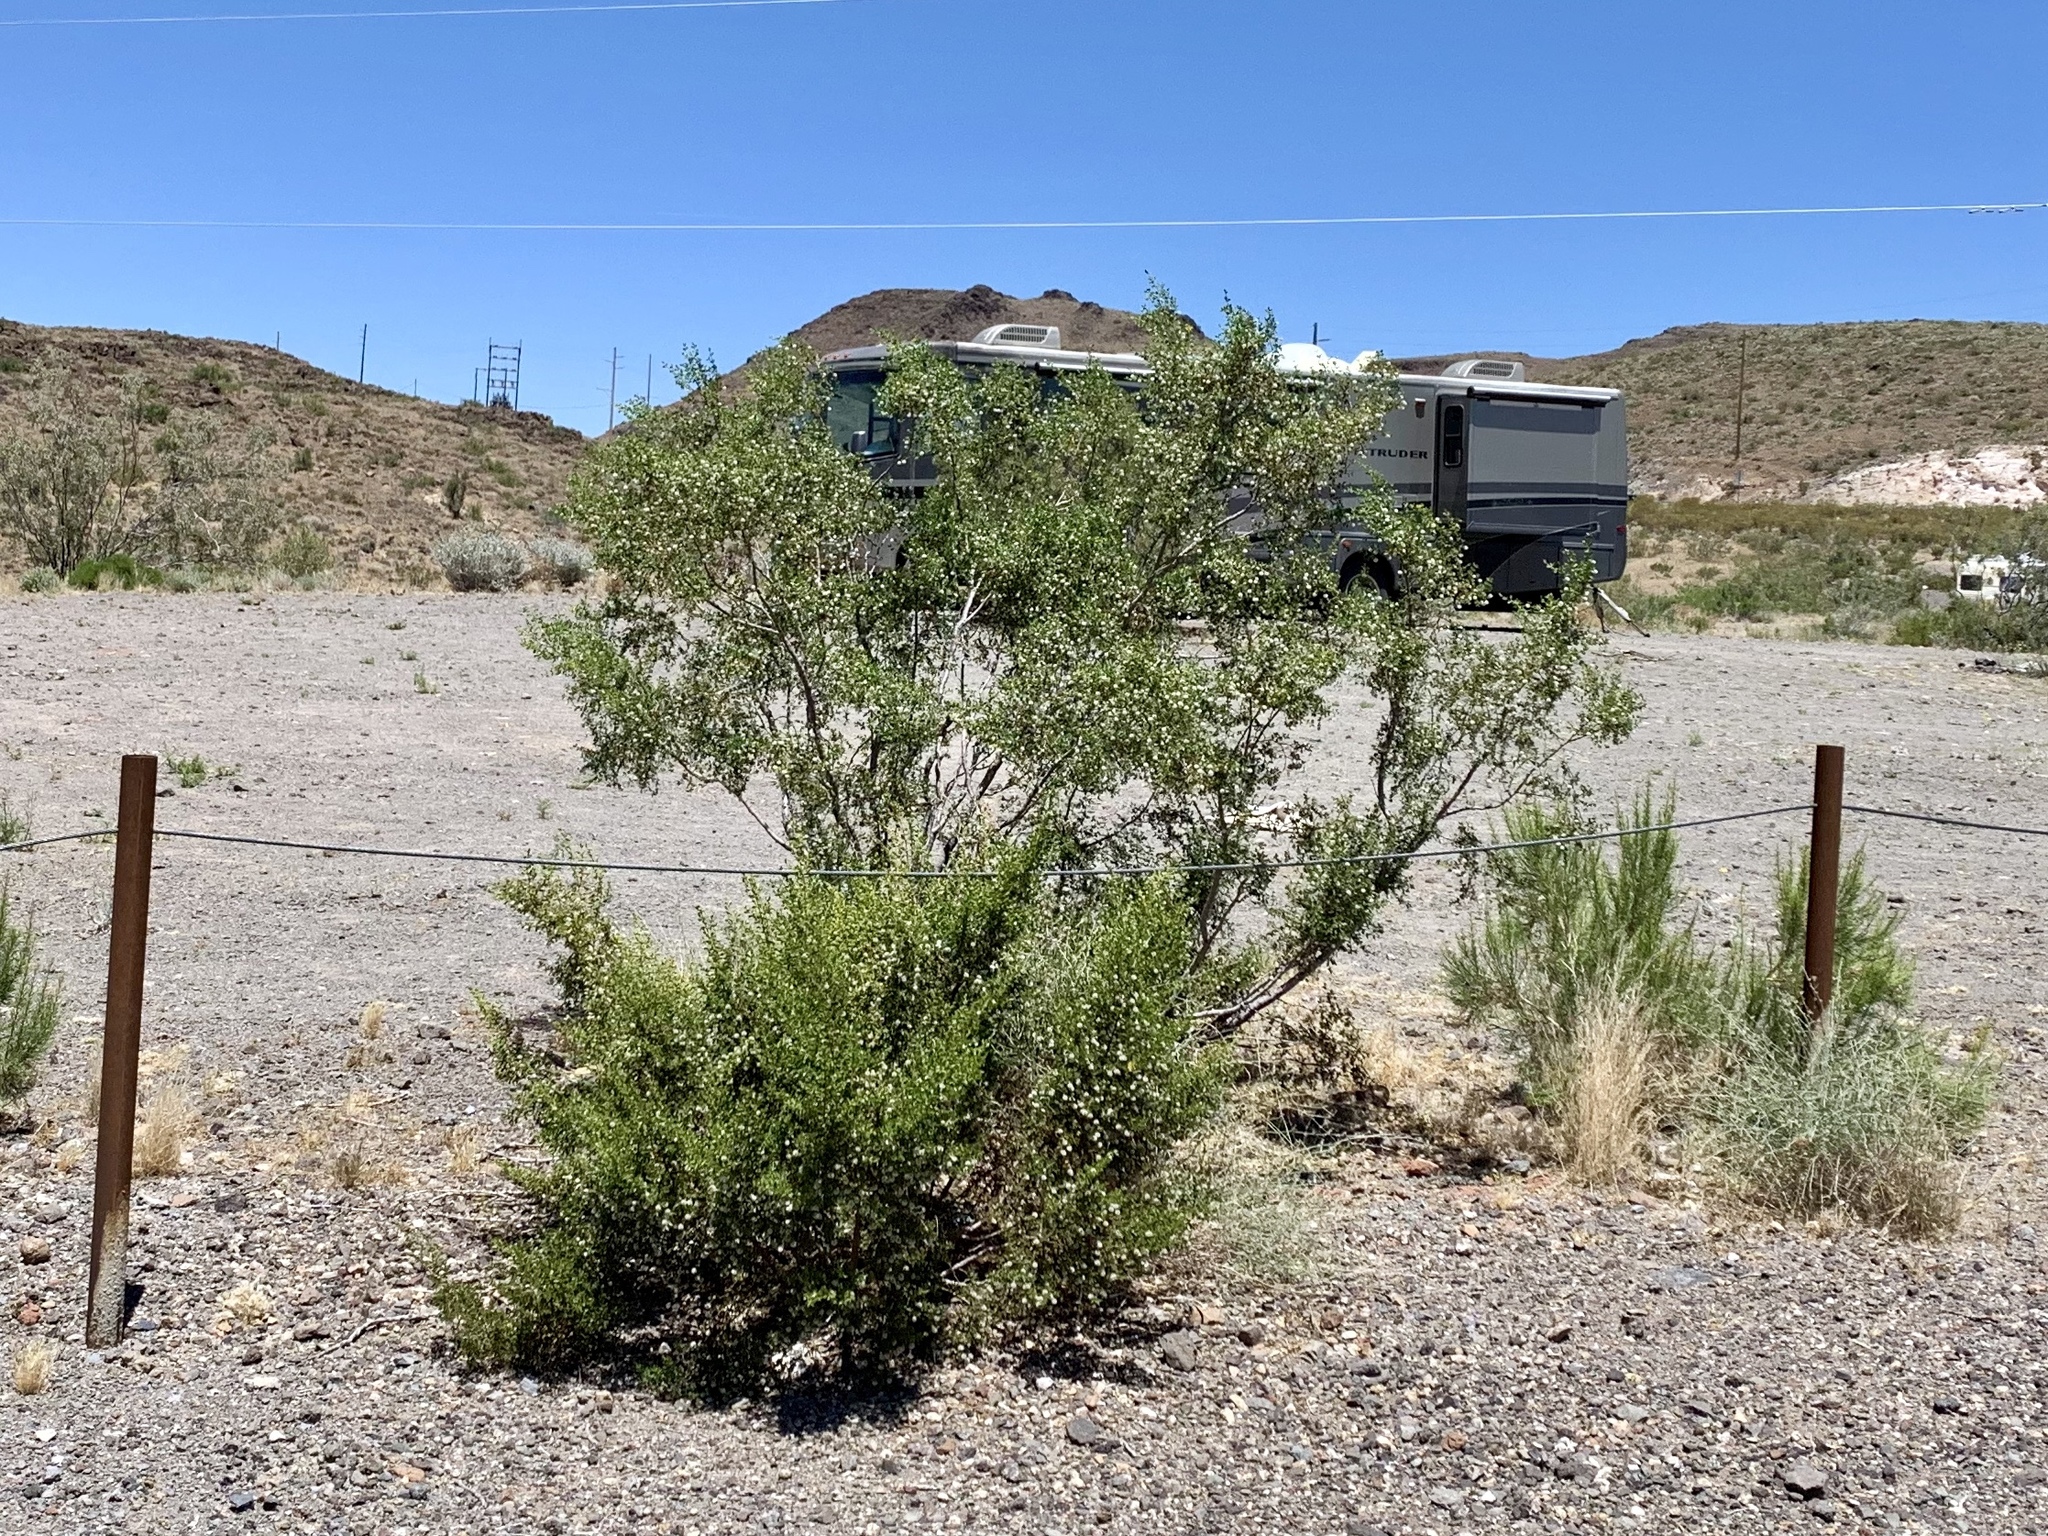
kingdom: Plantae
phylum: Tracheophyta
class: Magnoliopsida
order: Zygophyllales
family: Zygophyllaceae
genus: Larrea
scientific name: Larrea tridentata
